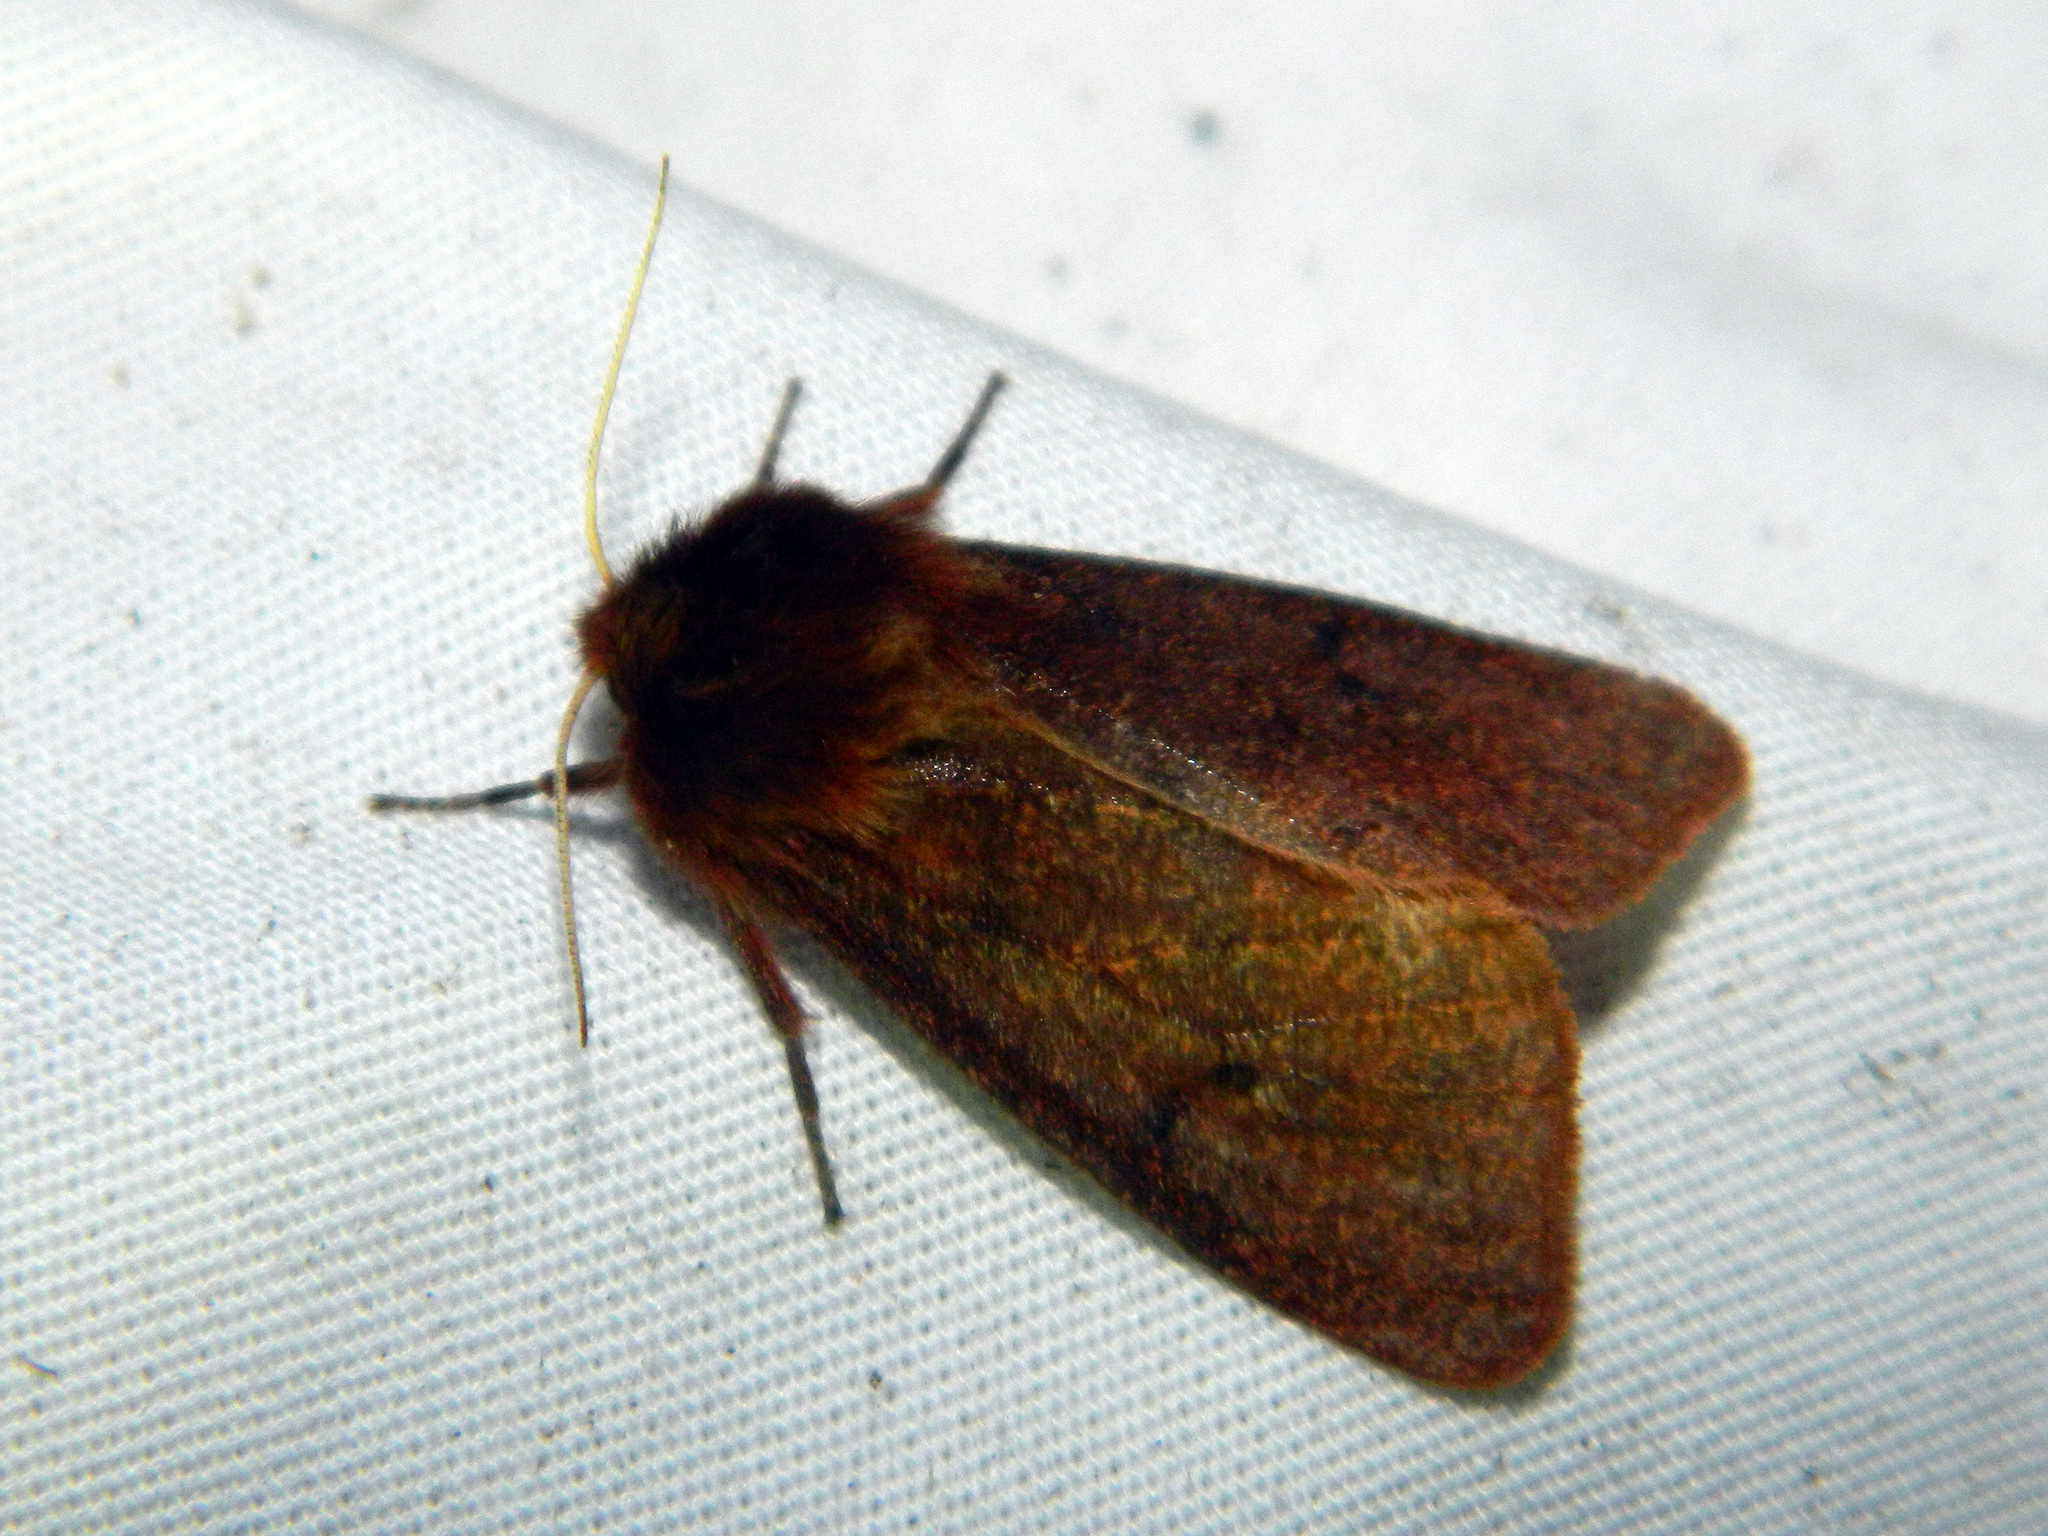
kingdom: Animalia
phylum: Arthropoda
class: Insecta
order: Lepidoptera
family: Erebidae
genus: Phragmatobia
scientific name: Phragmatobia assimilans
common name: Large ruby tiger moth
